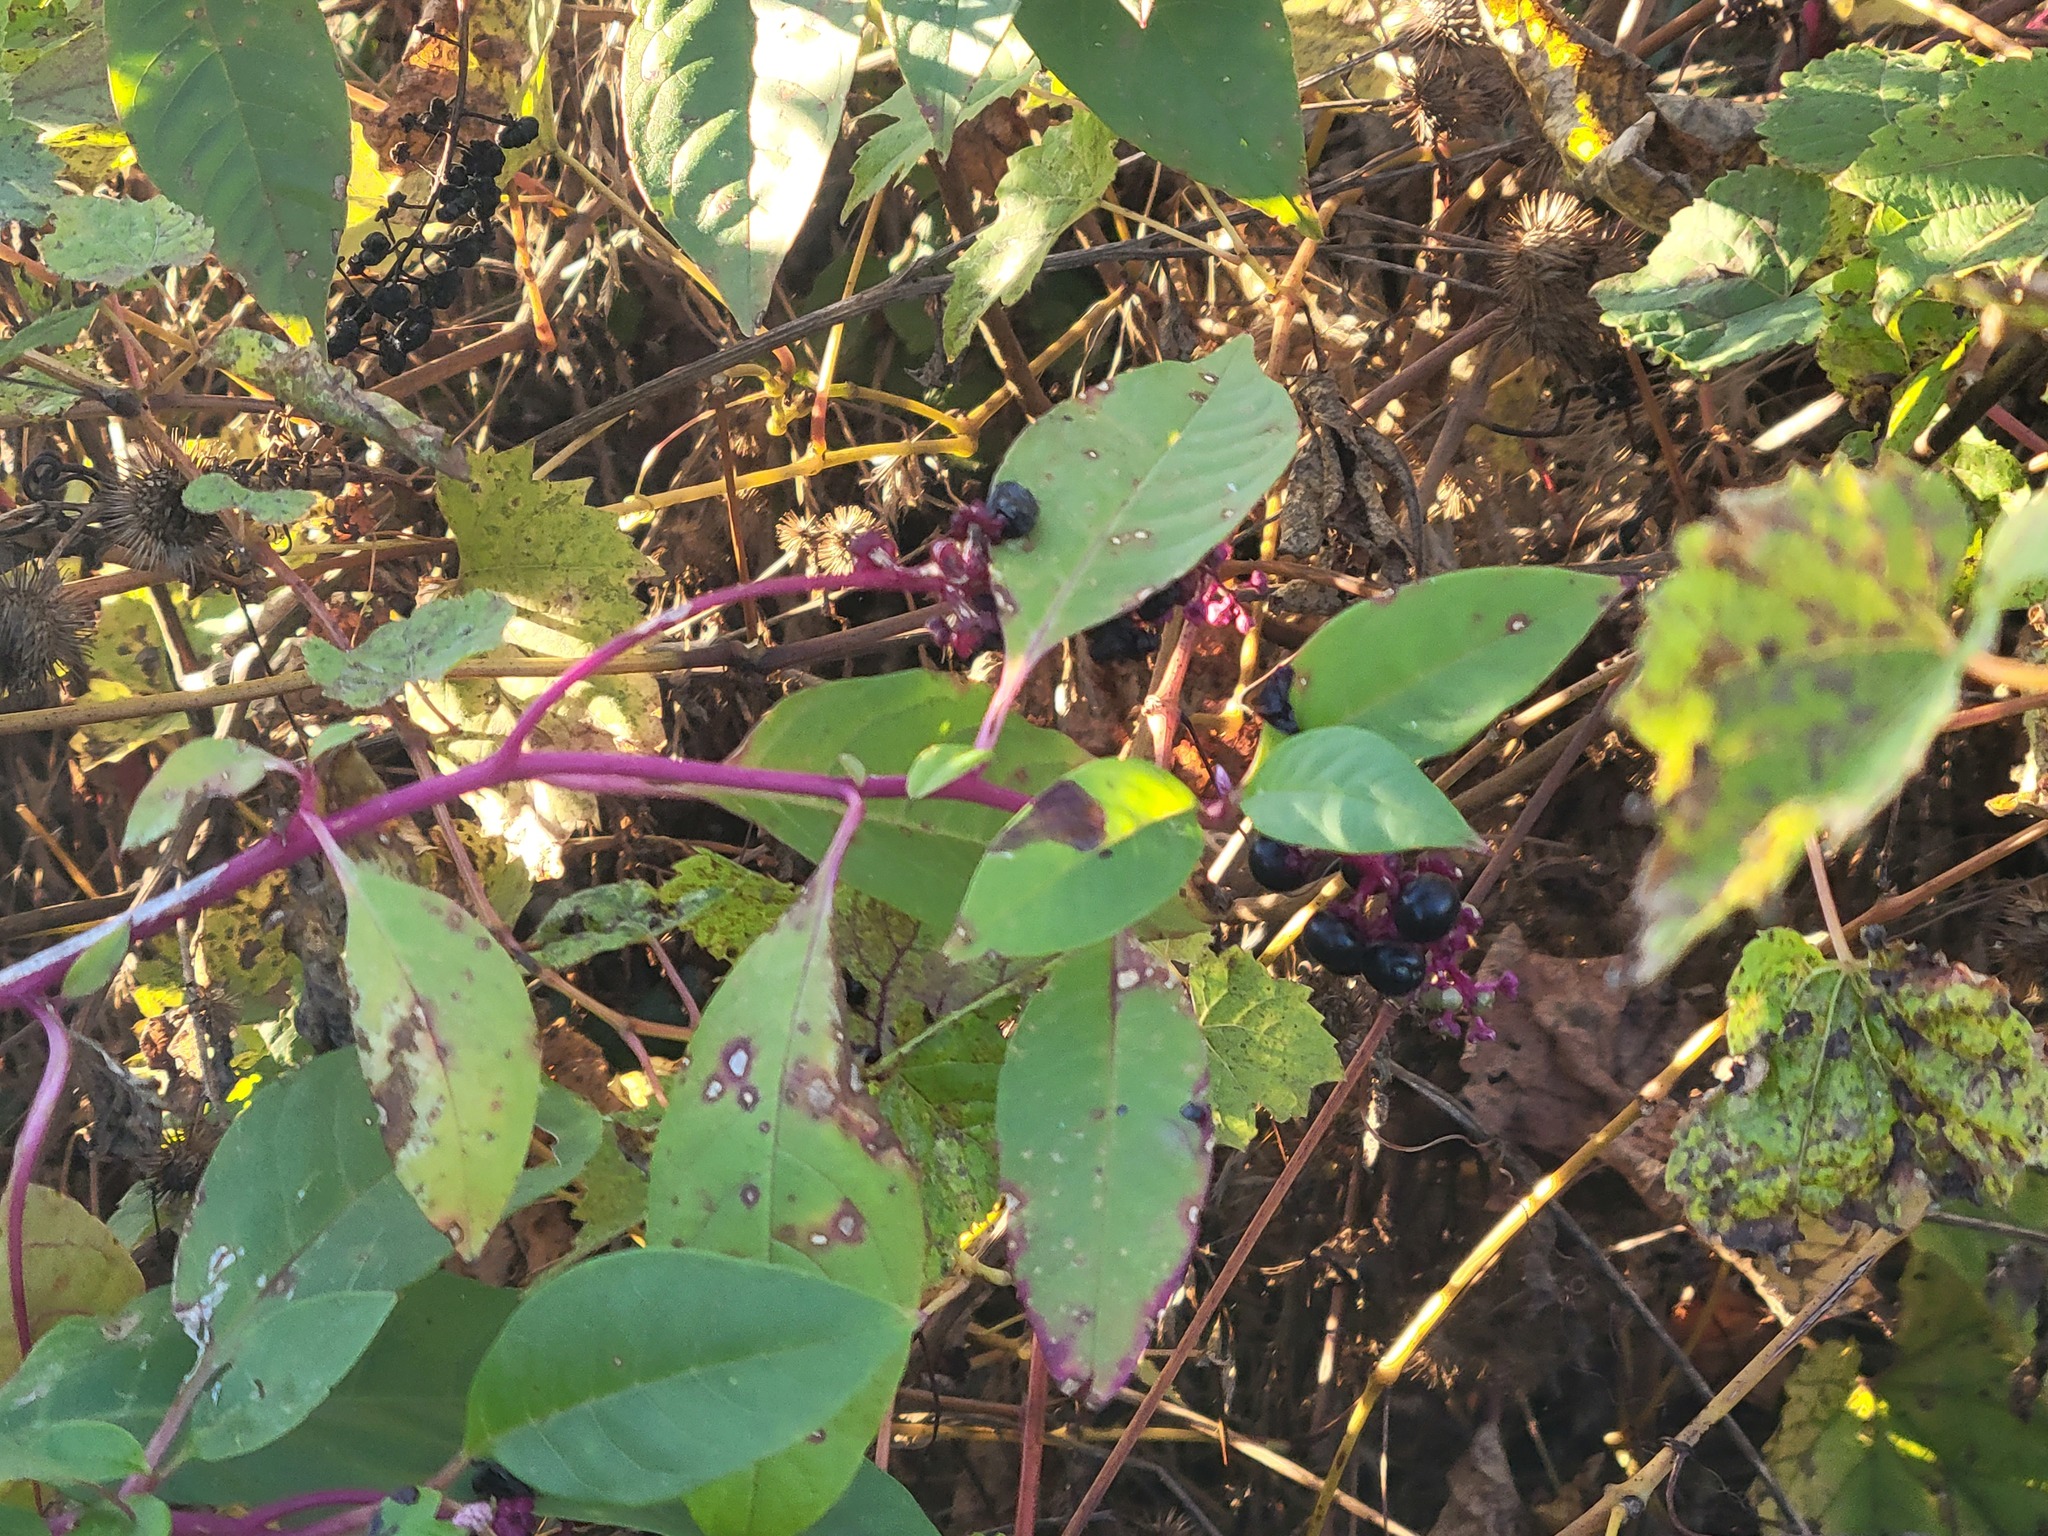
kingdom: Plantae
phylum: Tracheophyta
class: Magnoliopsida
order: Caryophyllales
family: Phytolaccaceae
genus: Phytolacca
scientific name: Phytolacca americana
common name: American pokeweed
